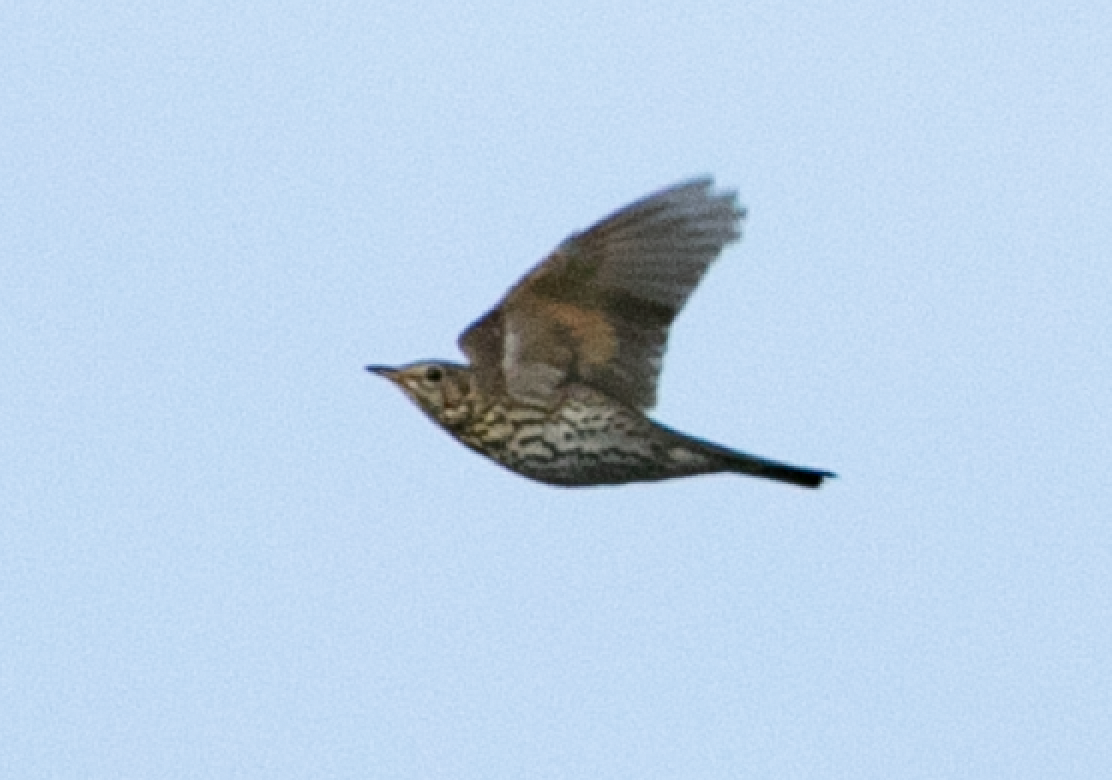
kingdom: Animalia
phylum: Chordata
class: Aves
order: Passeriformes
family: Turdidae
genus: Turdus
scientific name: Turdus philomelos
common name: Song thrush
